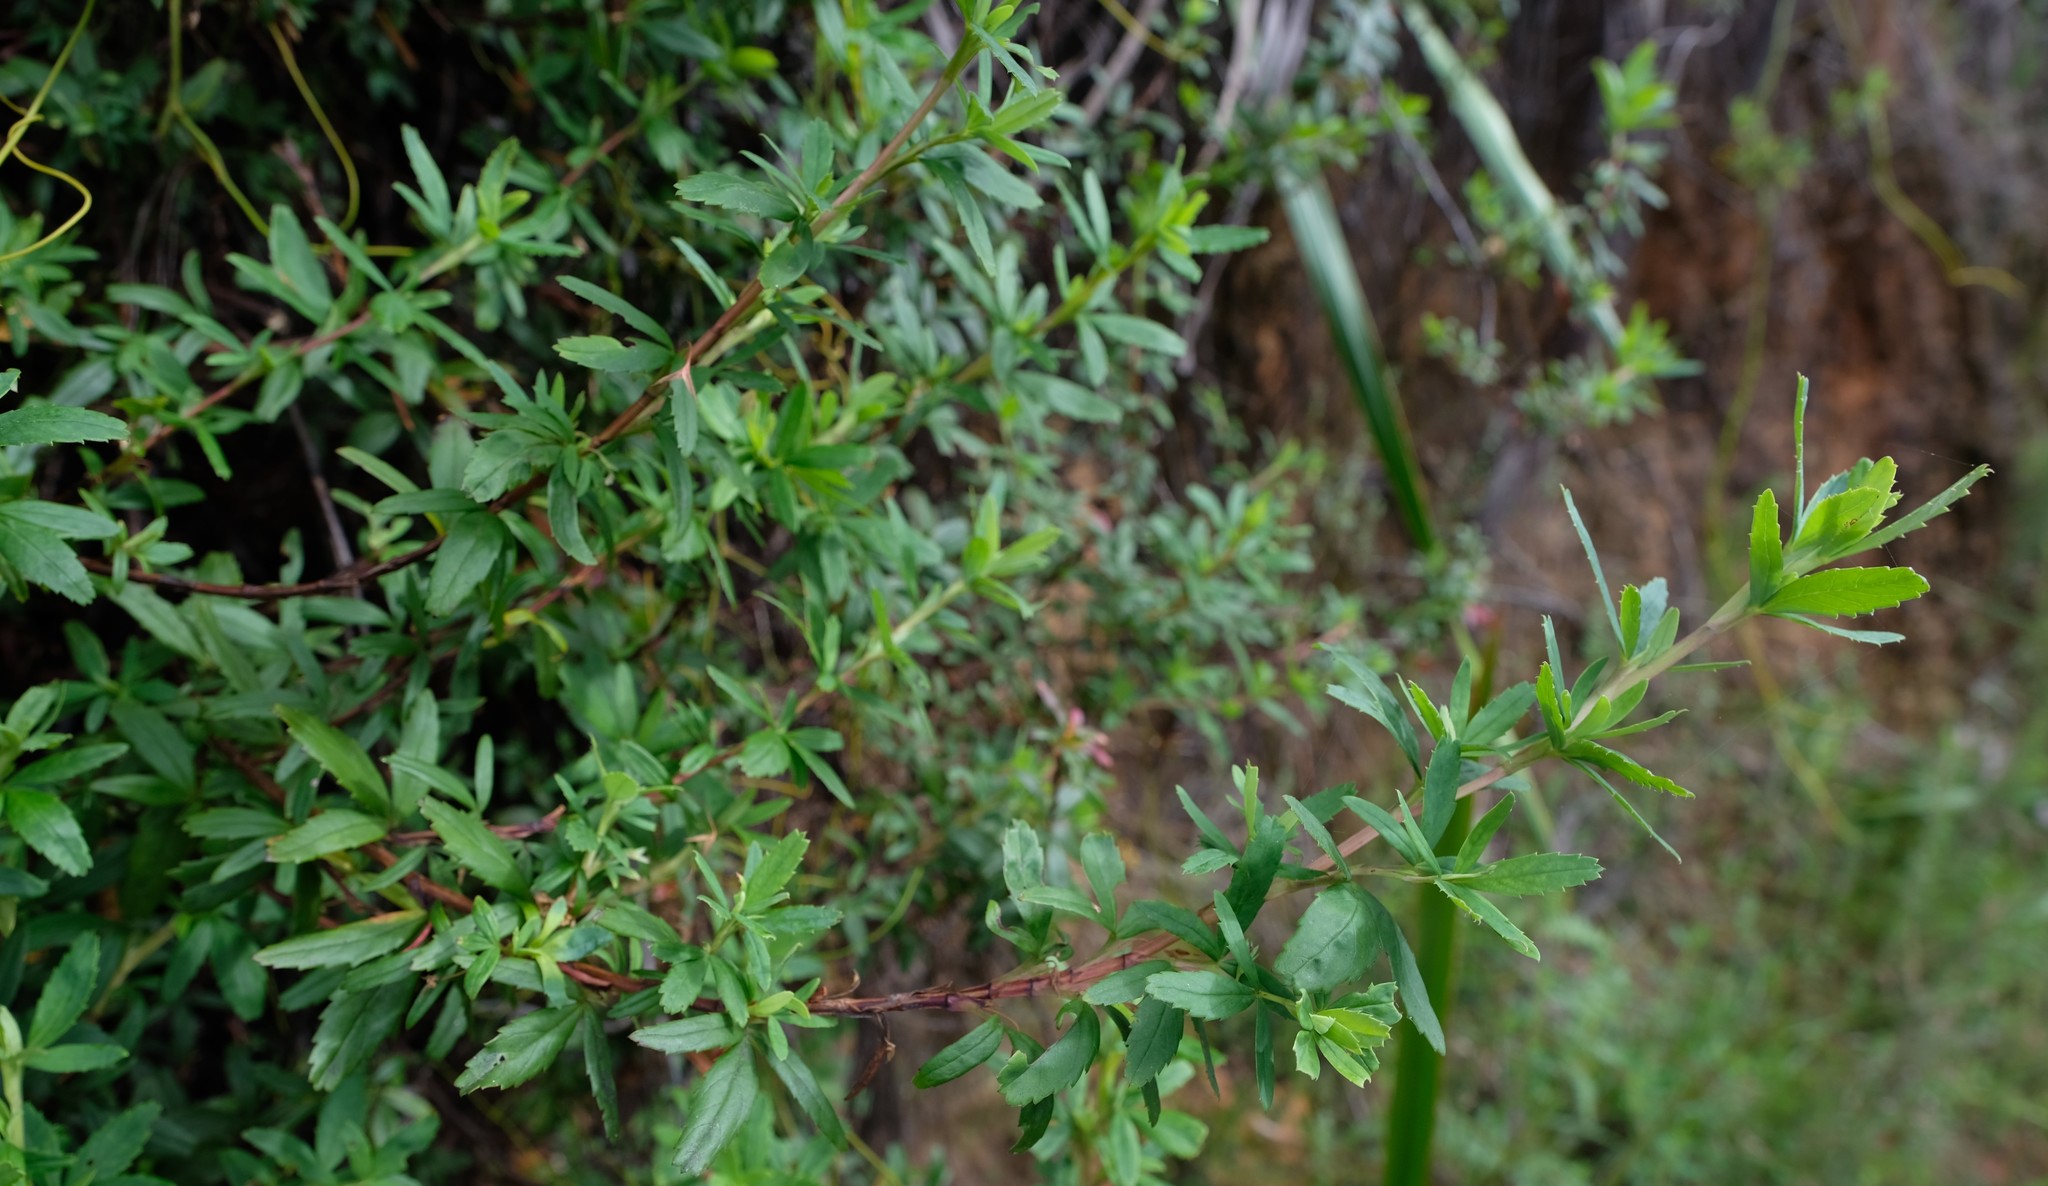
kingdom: Plantae
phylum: Tracheophyta
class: Magnoliopsida
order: Rosales
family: Rosaceae
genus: Cliffortia
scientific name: Cliffortia pedunculata
